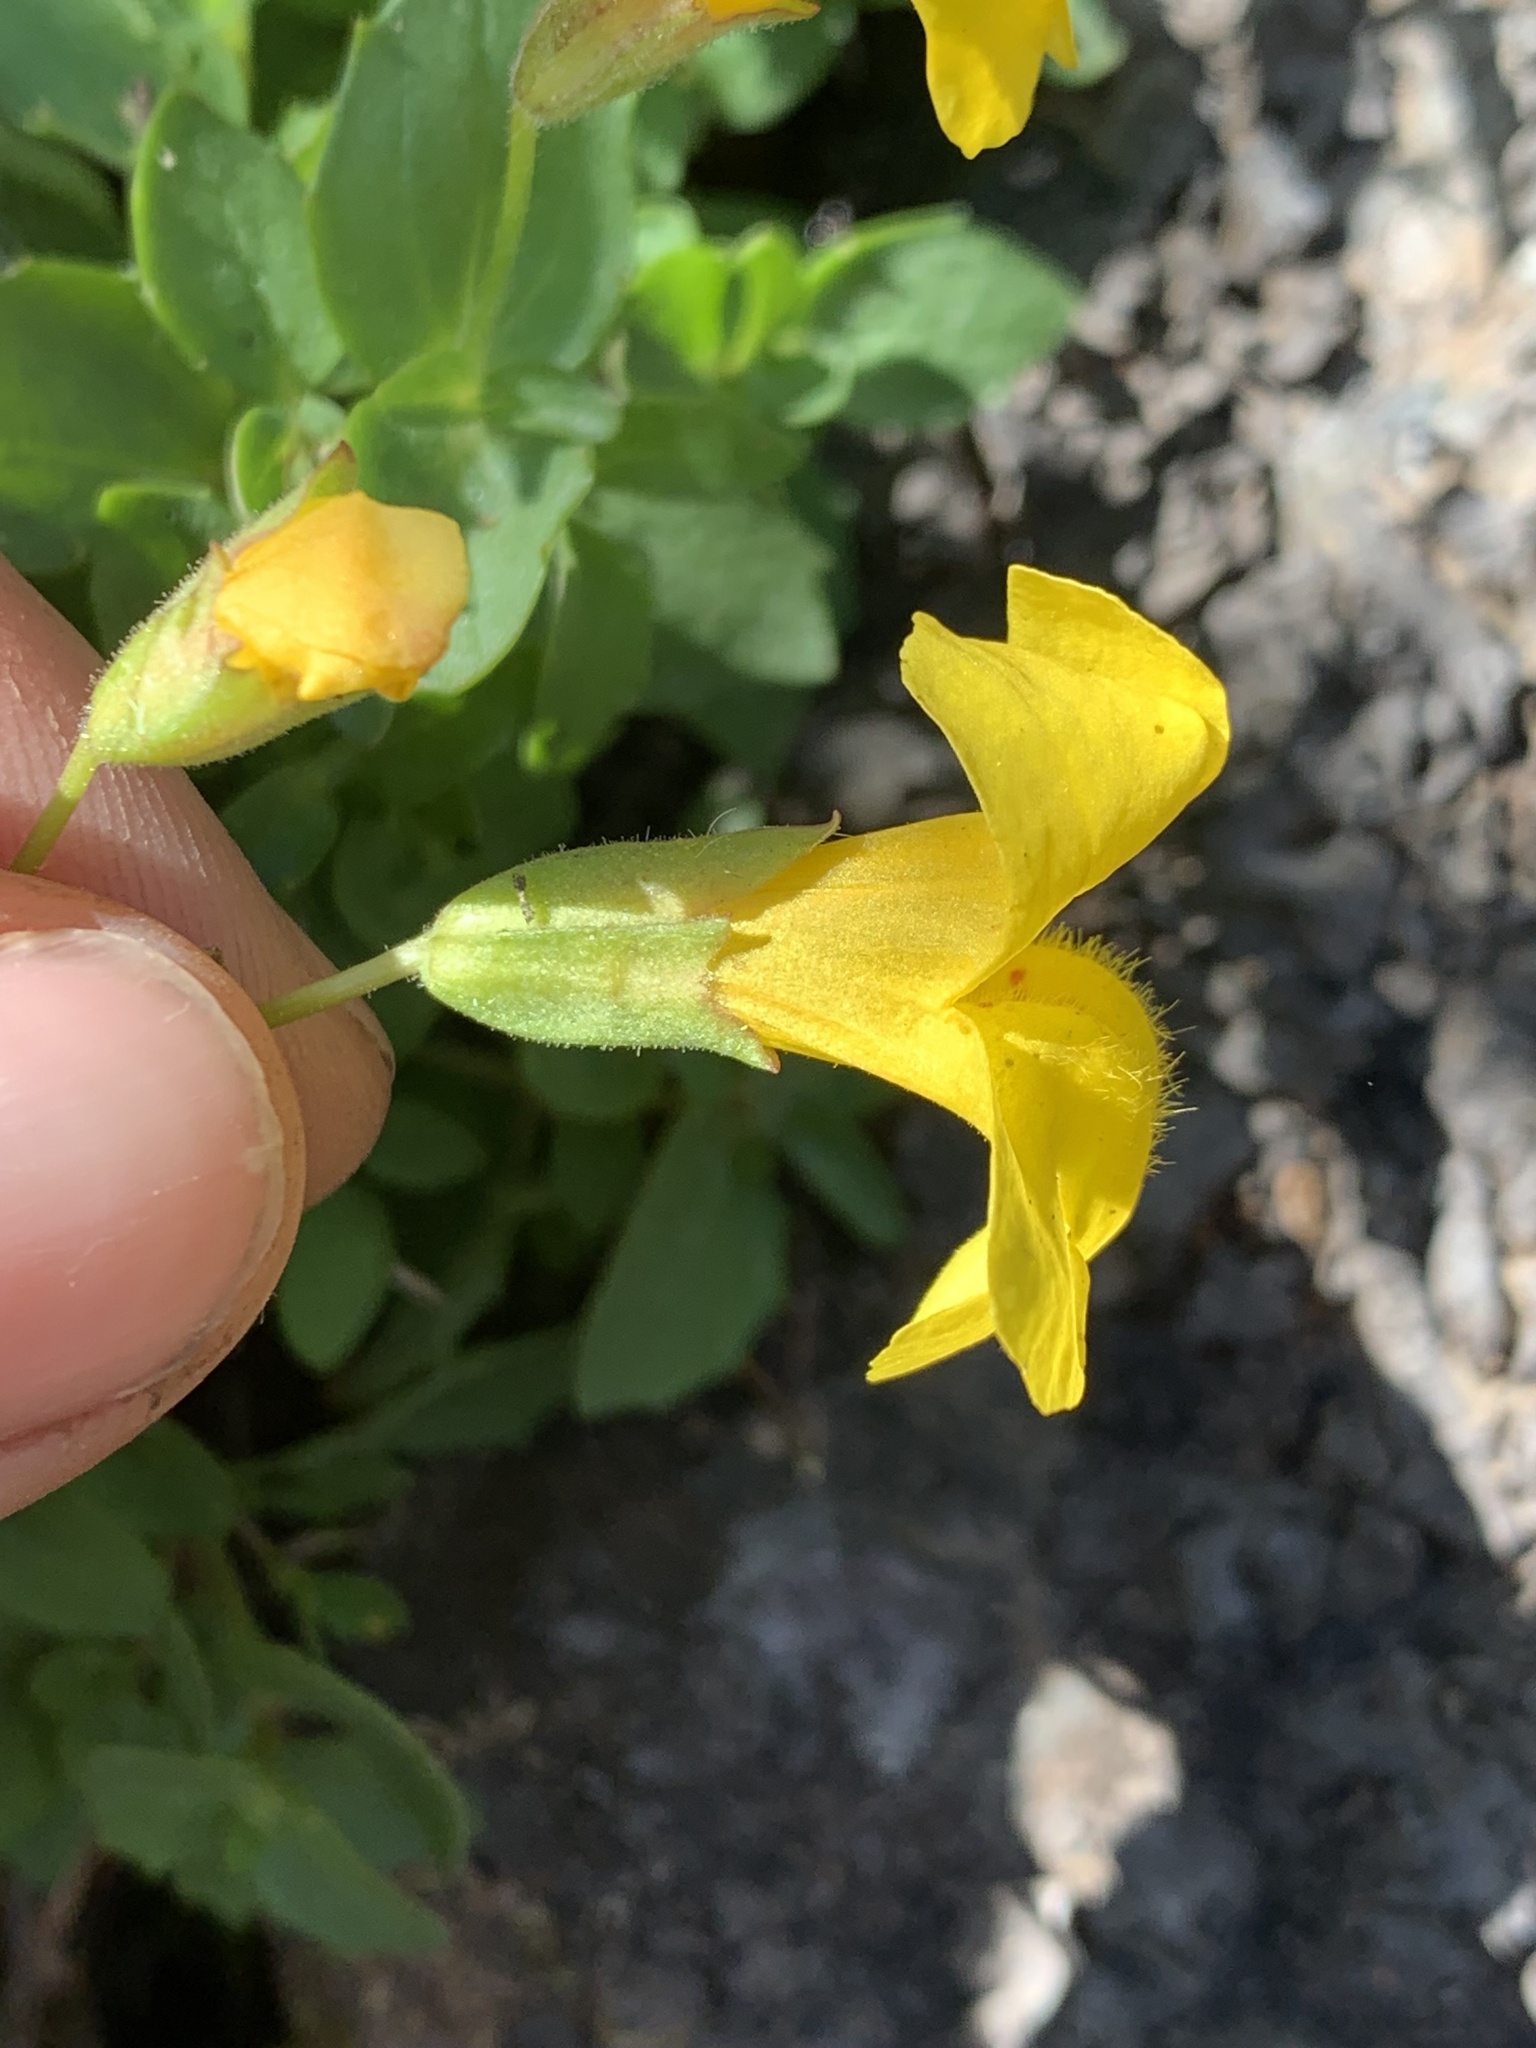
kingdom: Plantae
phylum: Tracheophyta
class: Magnoliopsida
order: Lamiales
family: Phrymaceae
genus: Erythranthe
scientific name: Erythranthe tilingii
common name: Subalpine monkey-flower
